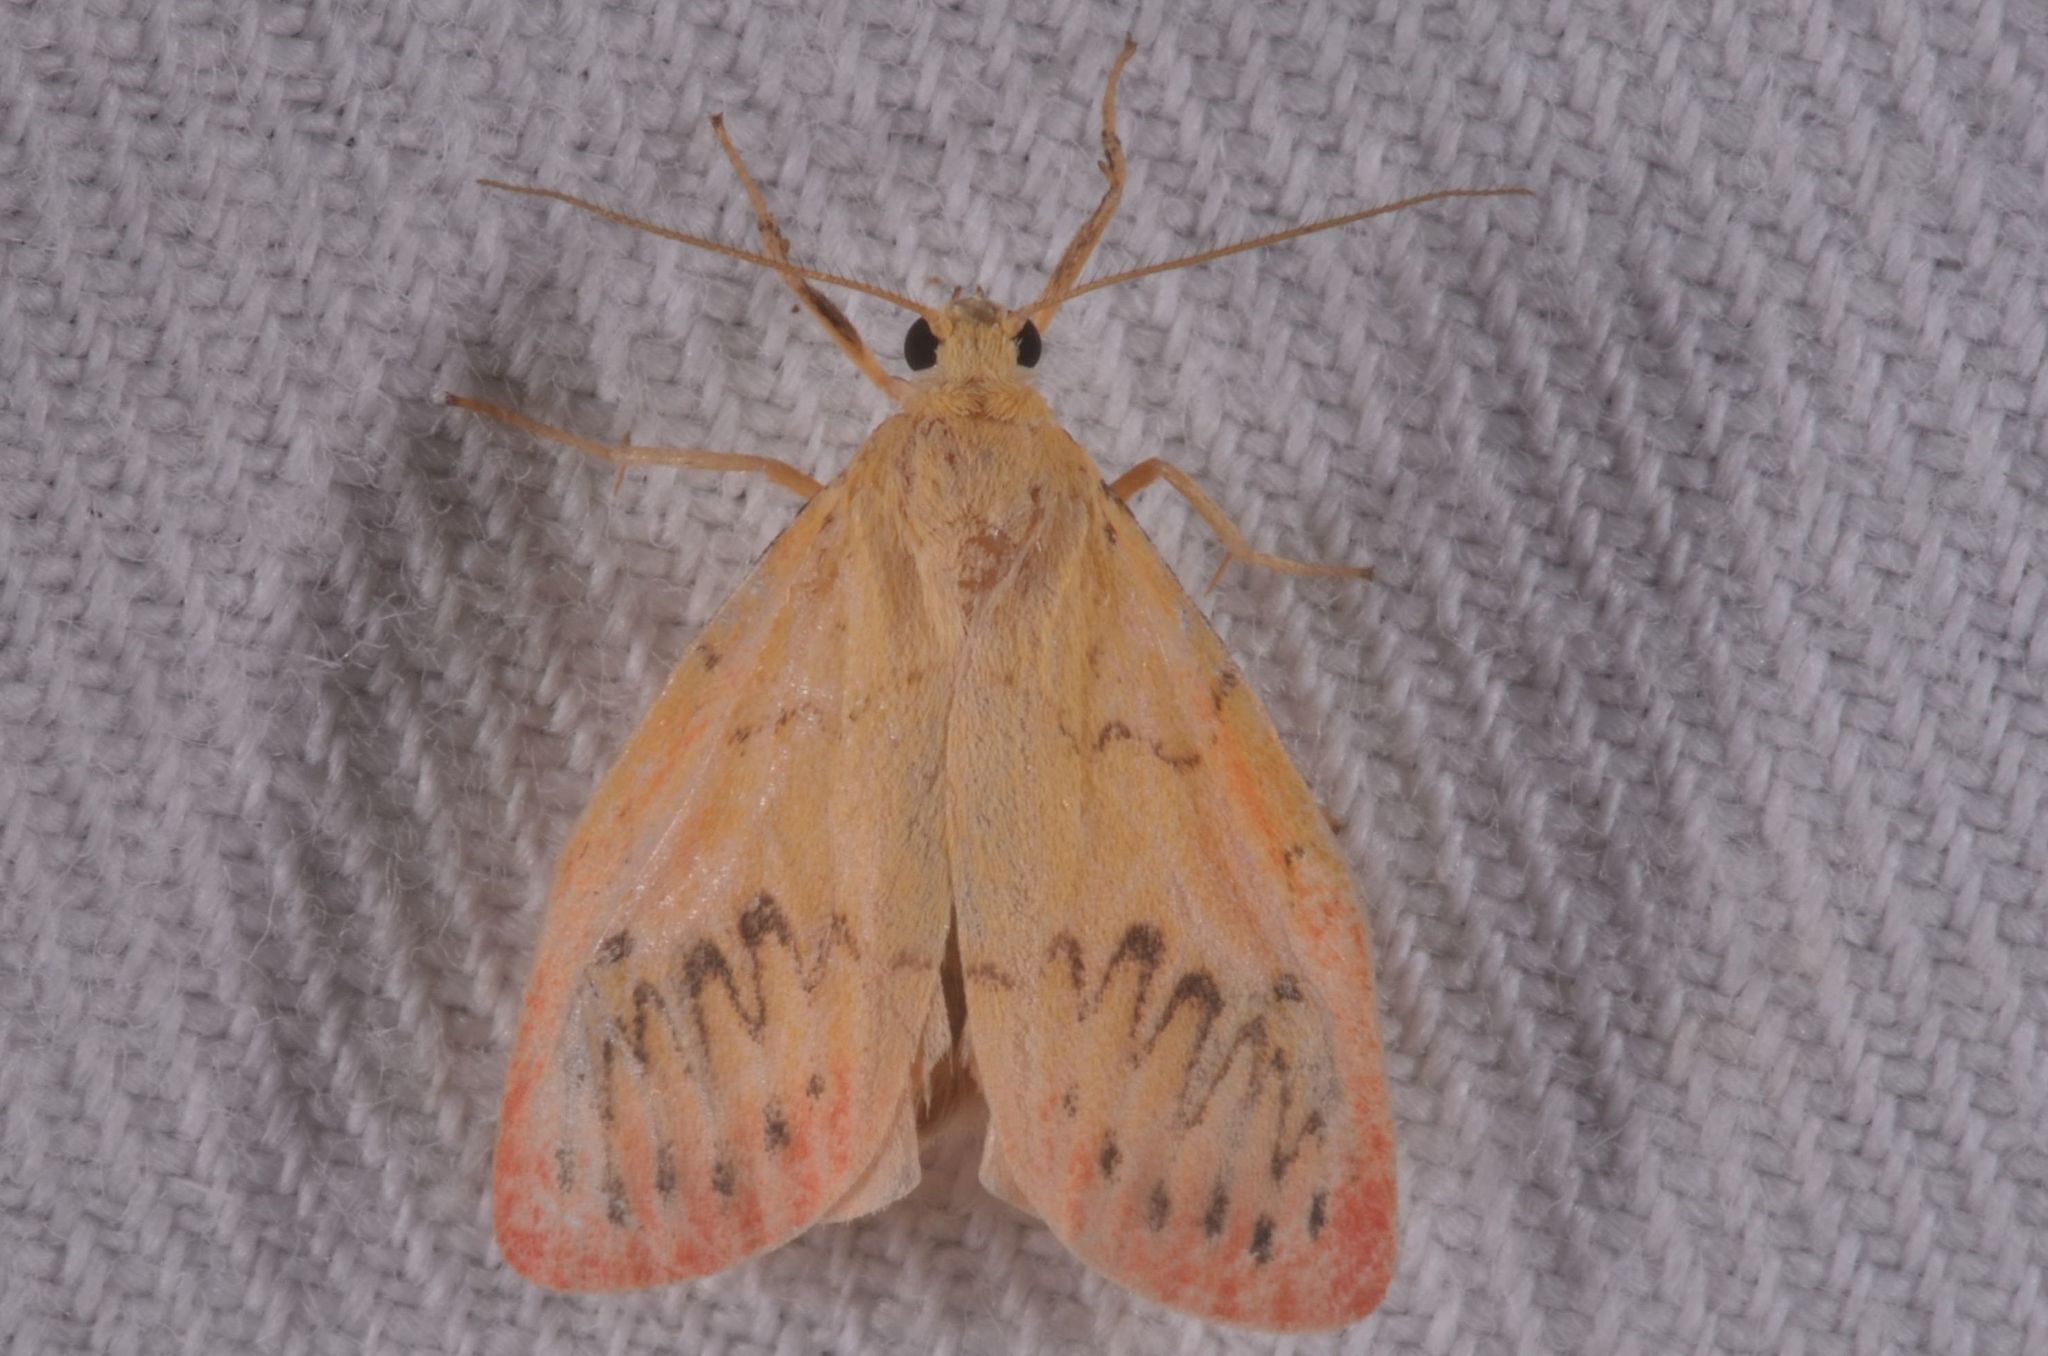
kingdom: Animalia
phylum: Arthropoda
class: Insecta
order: Lepidoptera
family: Erebidae
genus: Miltochrista
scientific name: Miltochrista miniata
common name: Rosy footman
